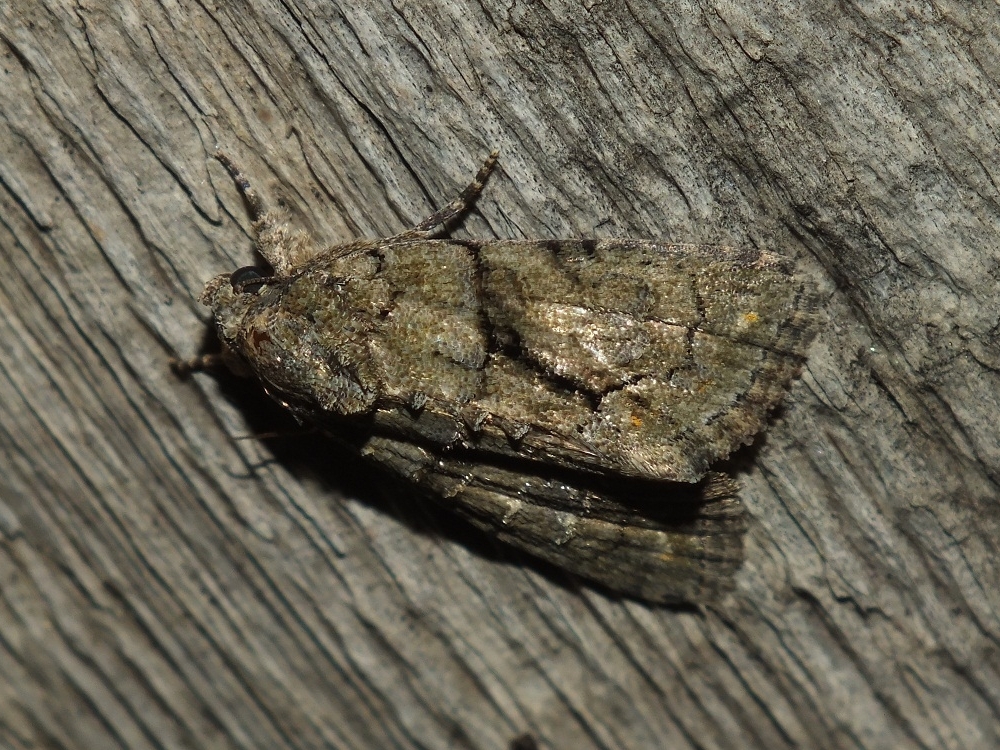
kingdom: Animalia
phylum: Arthropoda
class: Insecta
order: Lepidoptera
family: Noctuidae
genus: Cryphia
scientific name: Cryphia receptricula
